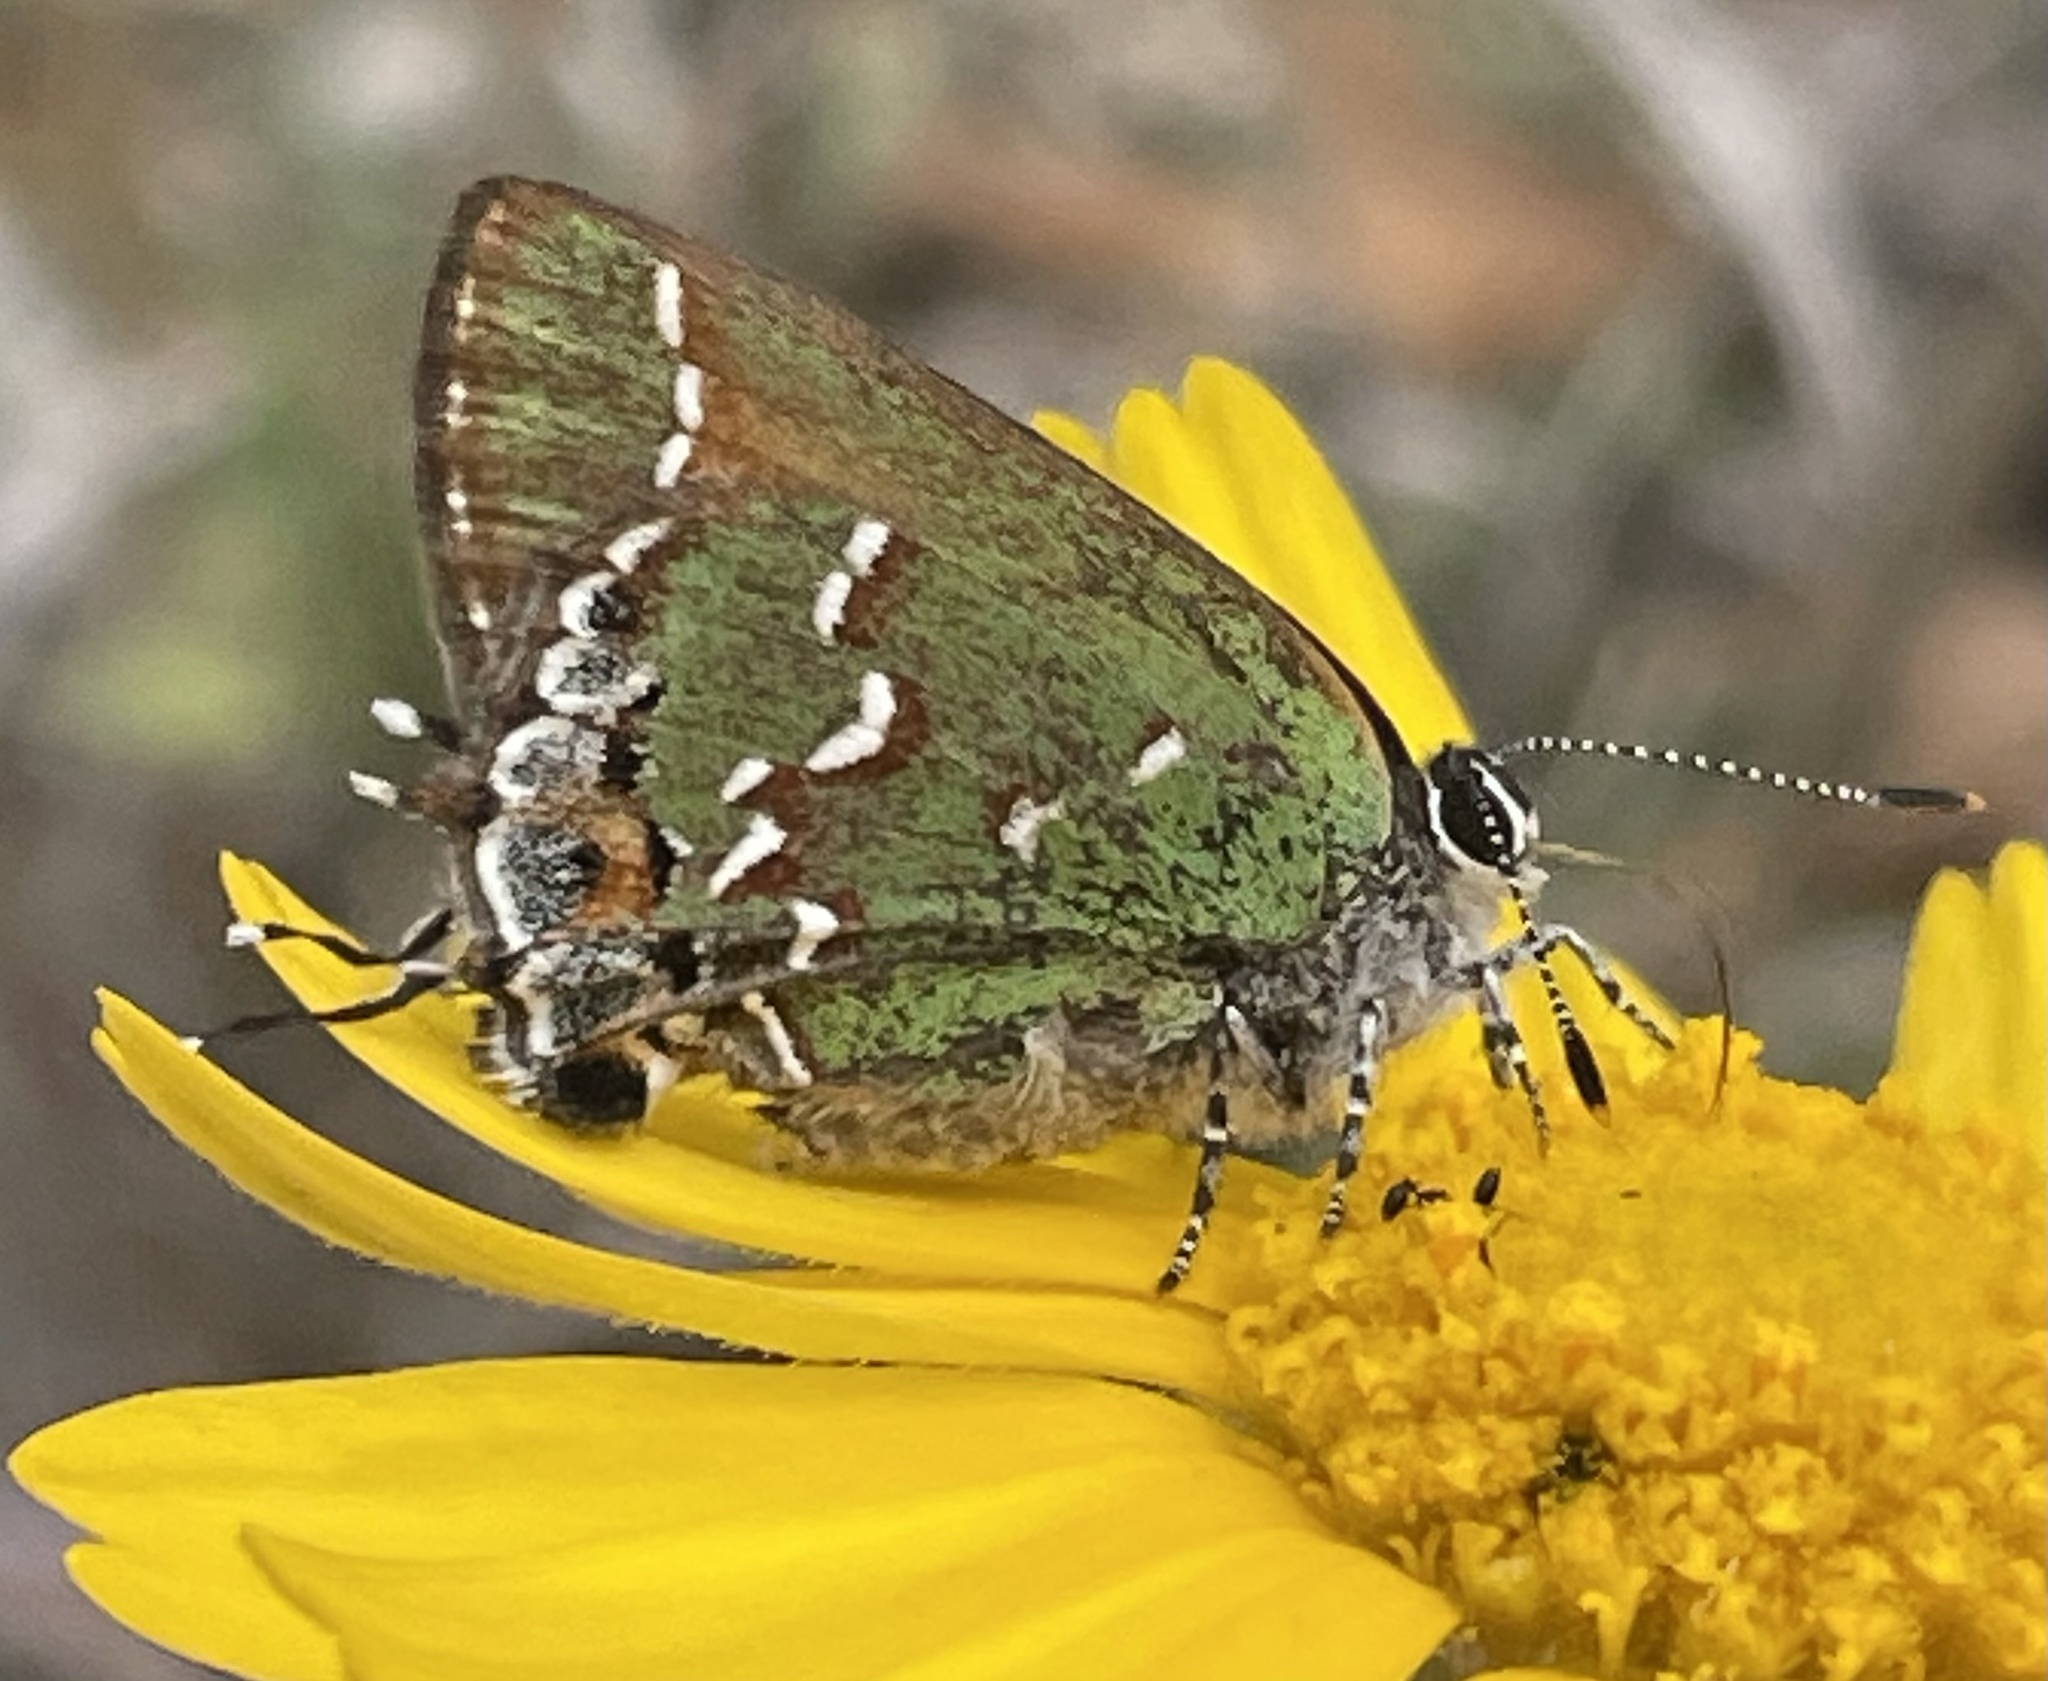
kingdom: Animalia
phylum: Arthropoda
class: Insecta
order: Lepidoptera
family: Lycaenidae
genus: Mitoura
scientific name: Mitoura gryneus
